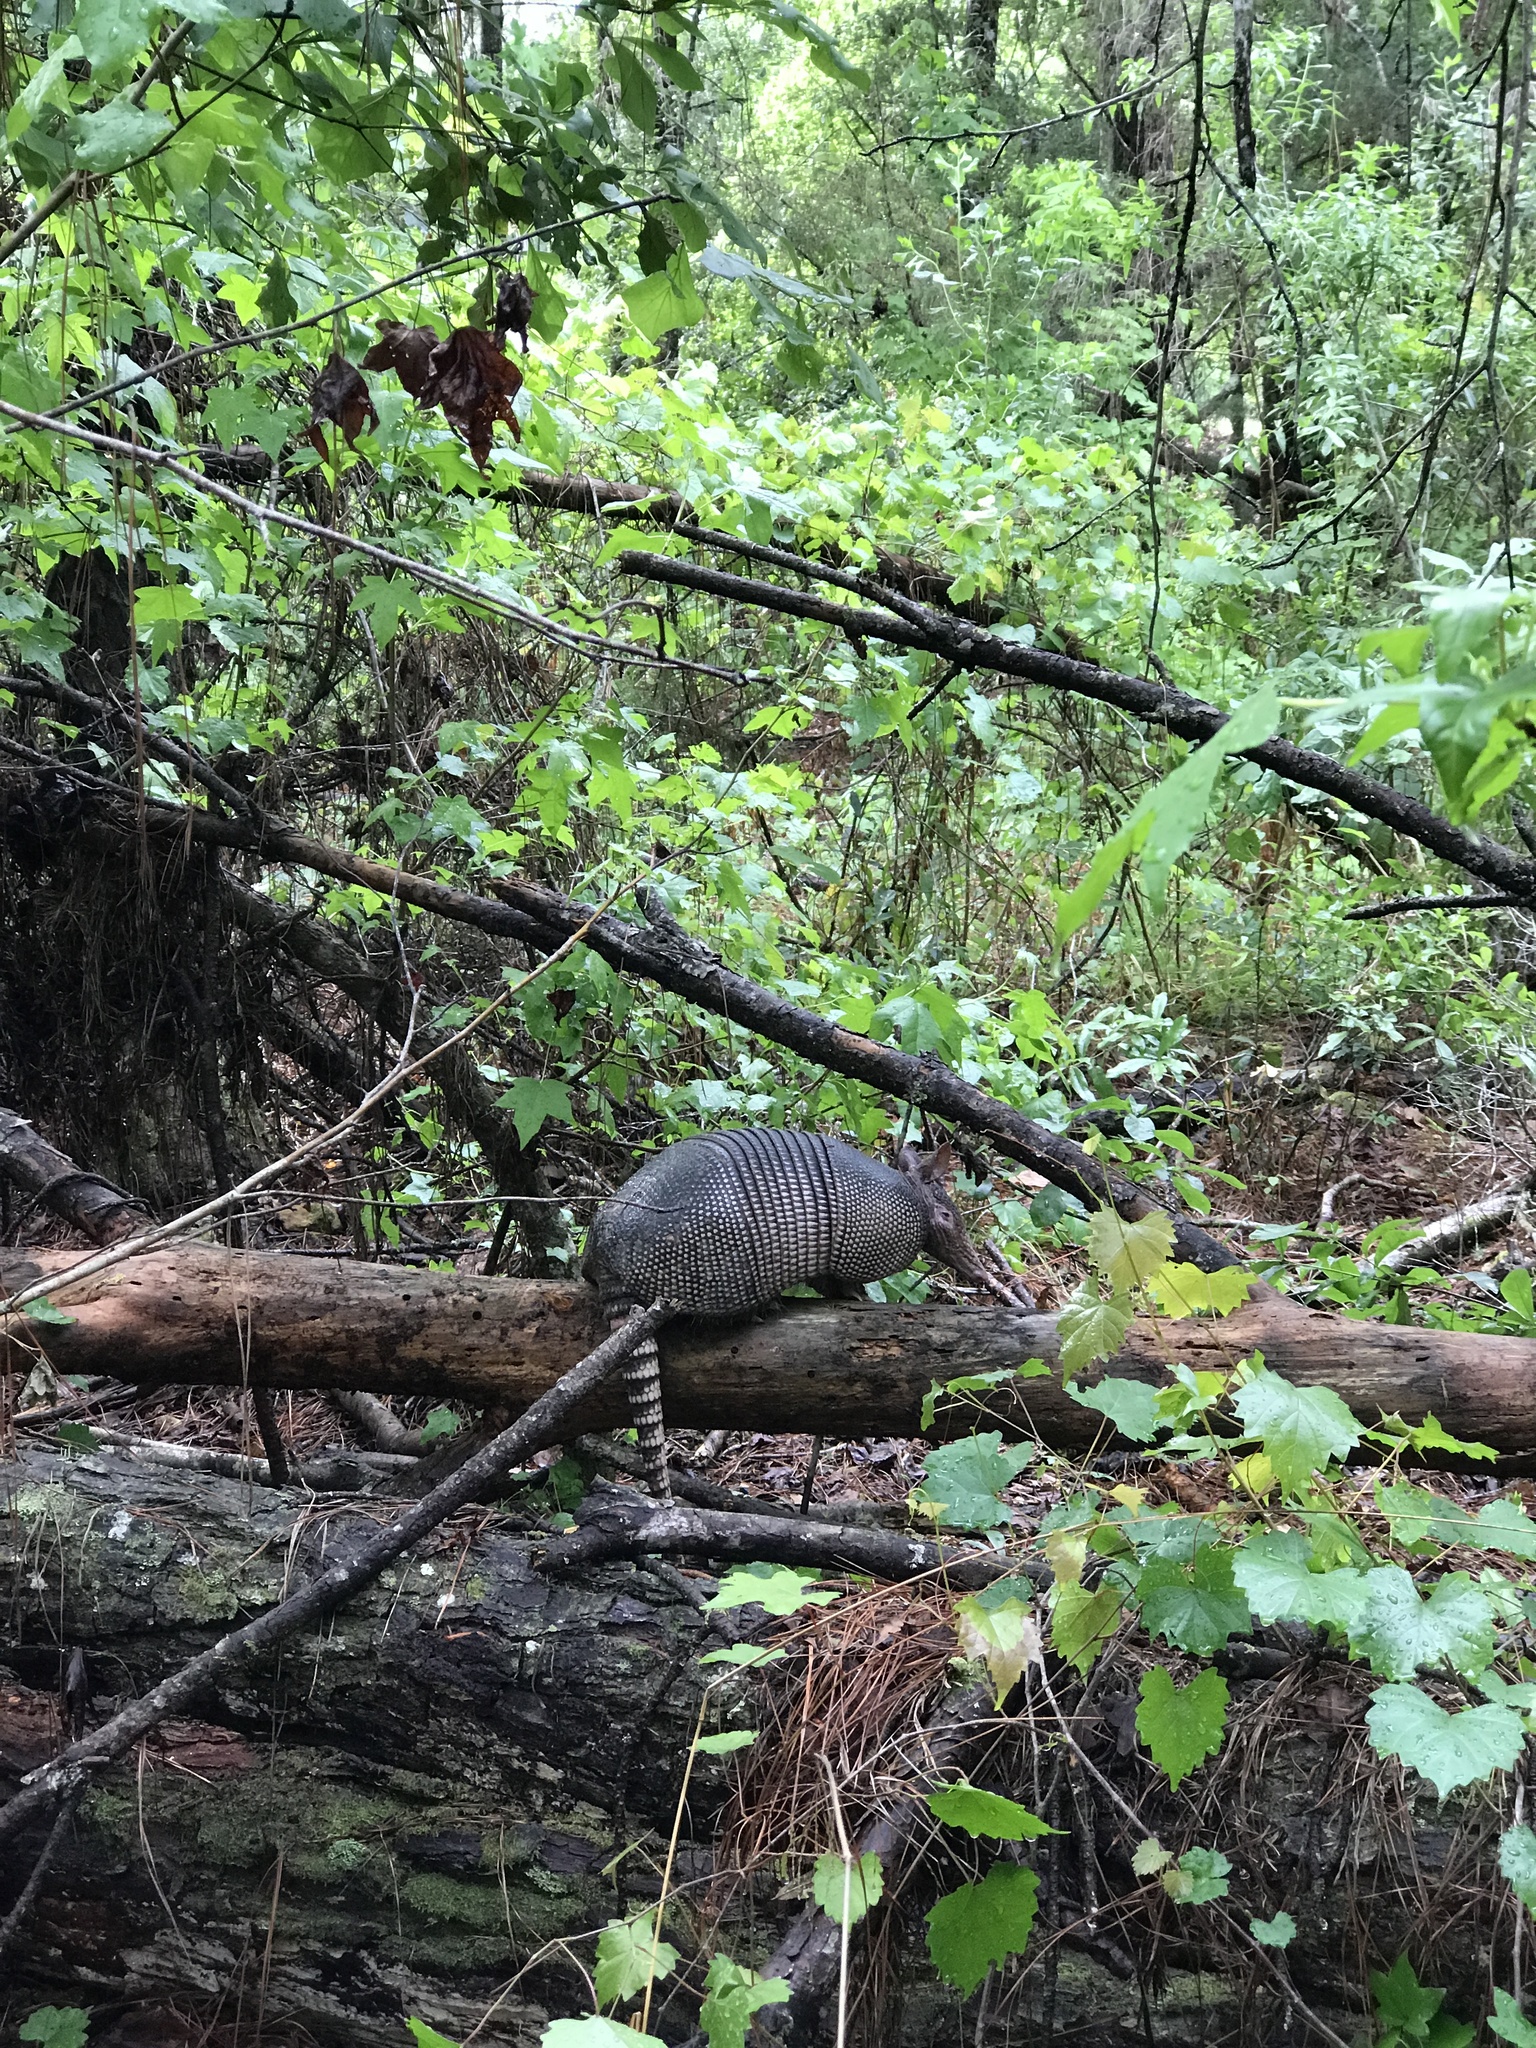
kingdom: Animalia
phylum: Chordata
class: Mammalia
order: Cingulata
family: Dasypodidae
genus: Dasypus
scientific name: Dasypus novemcinctus
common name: Nine-banded armadillo
